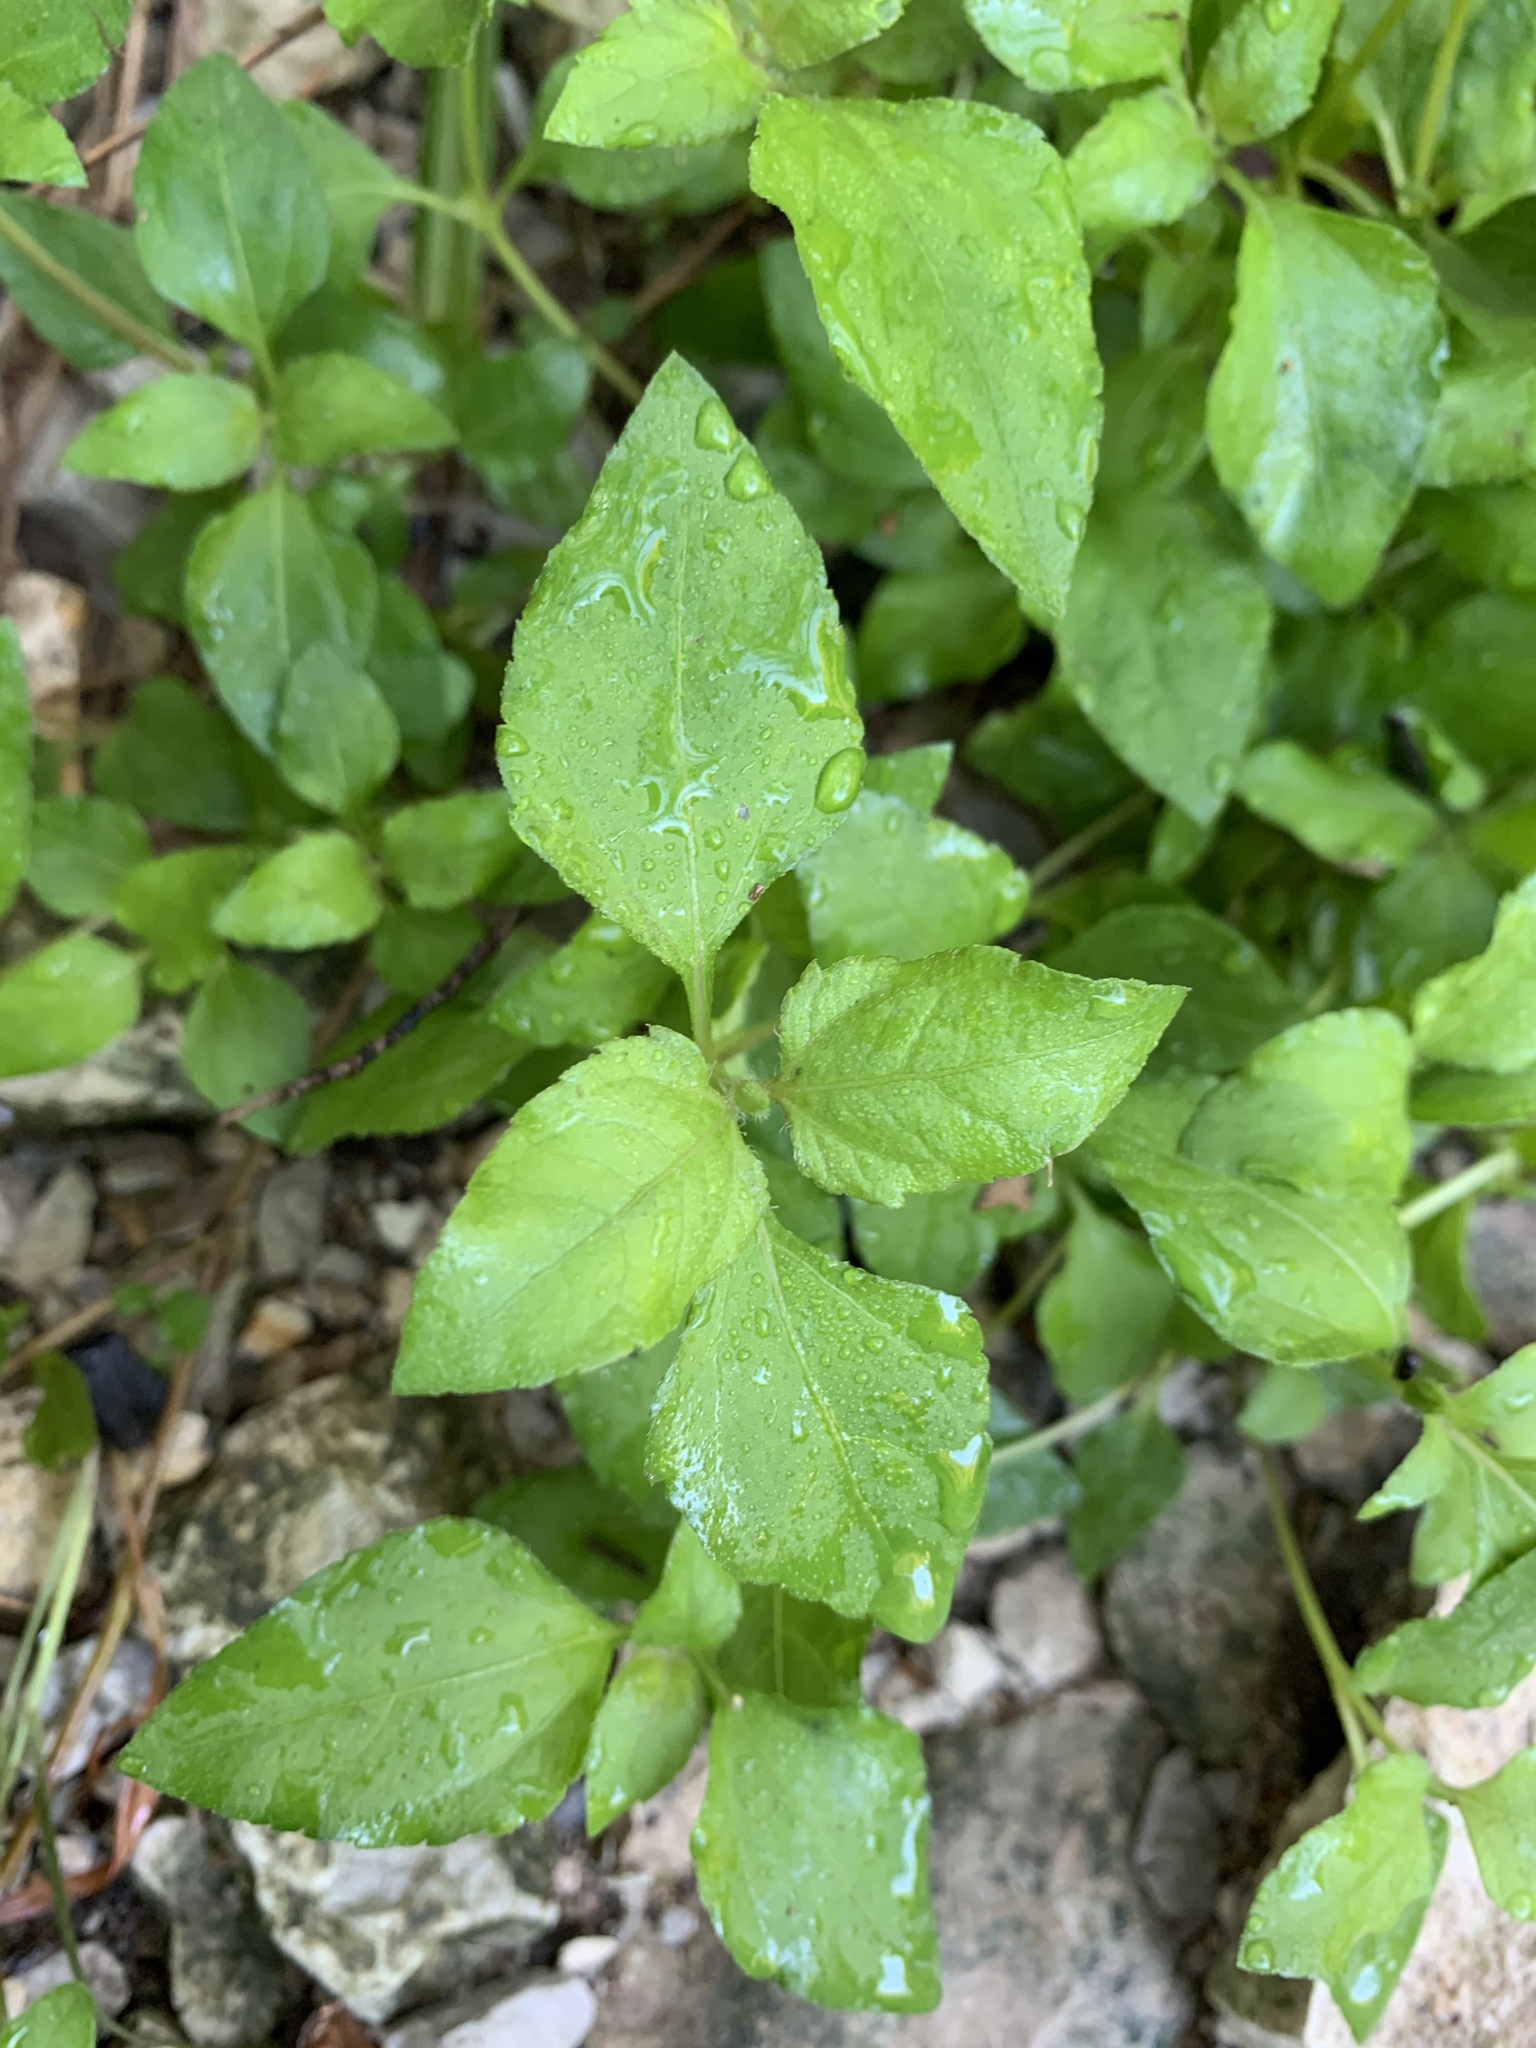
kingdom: Plantae
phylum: Tracheophyta
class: Magnoliopsida
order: Asterales
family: Asteraceae
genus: Calyptocarpus
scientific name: Calyptocarpus vialis
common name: Straggler daisy
